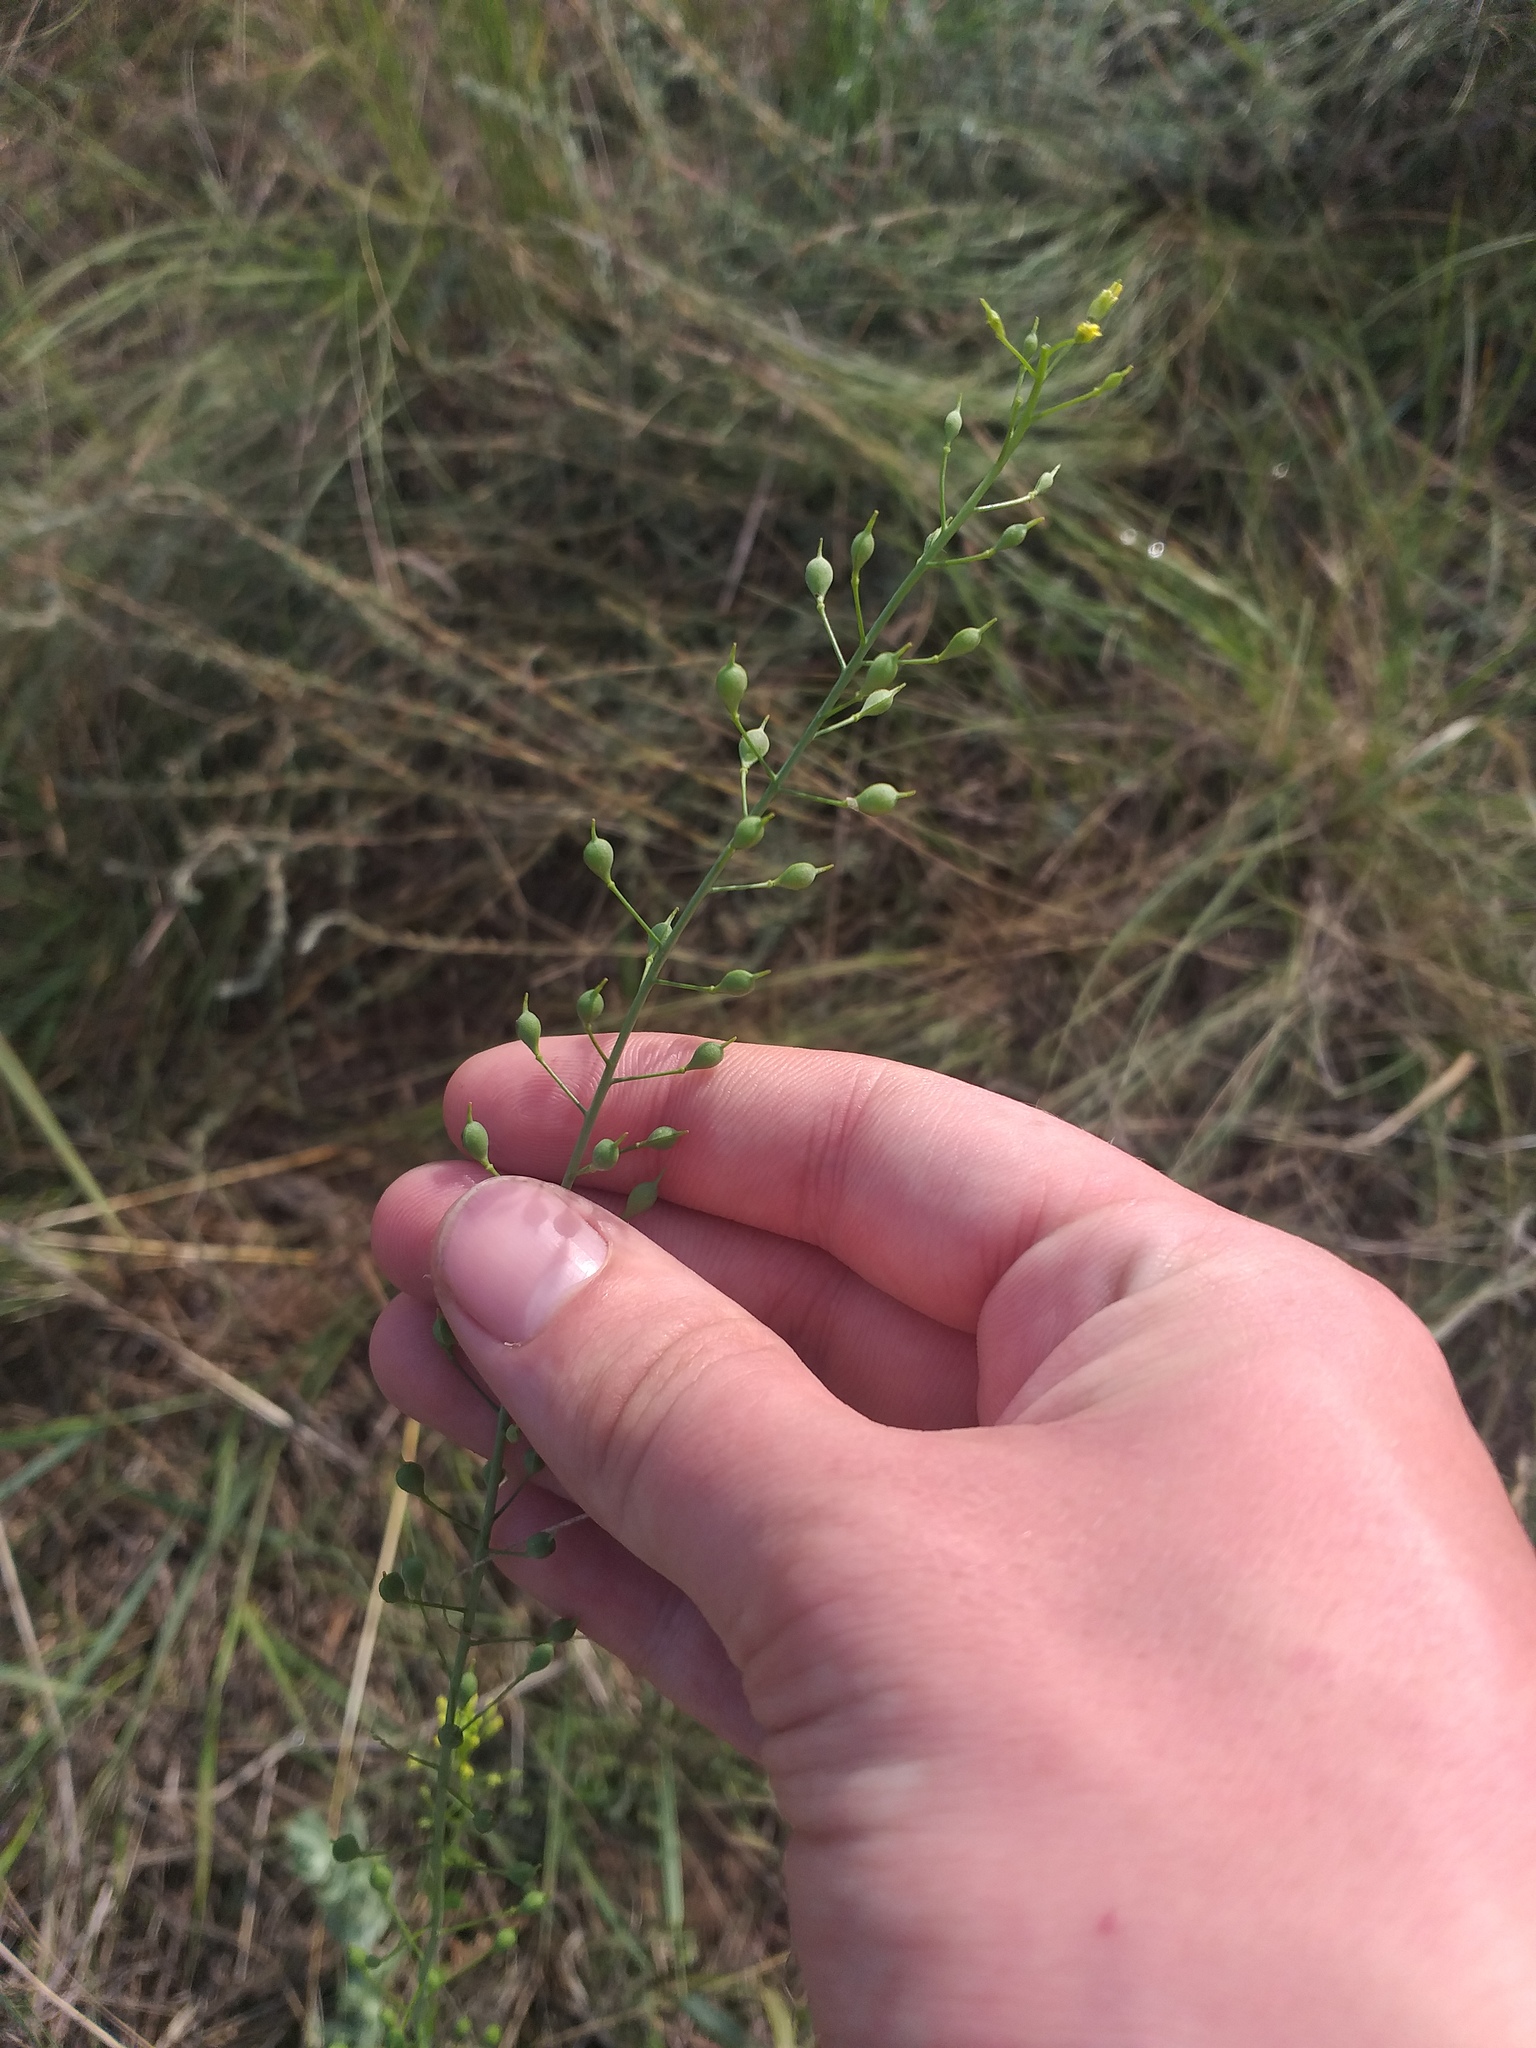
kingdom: Plantae
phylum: Tracheophyta
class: Magnoliopsida
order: Brassicales
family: Brassicaceae
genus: Camelina
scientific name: Camelina microcarpa
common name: Lesser gold-of-pleasure
